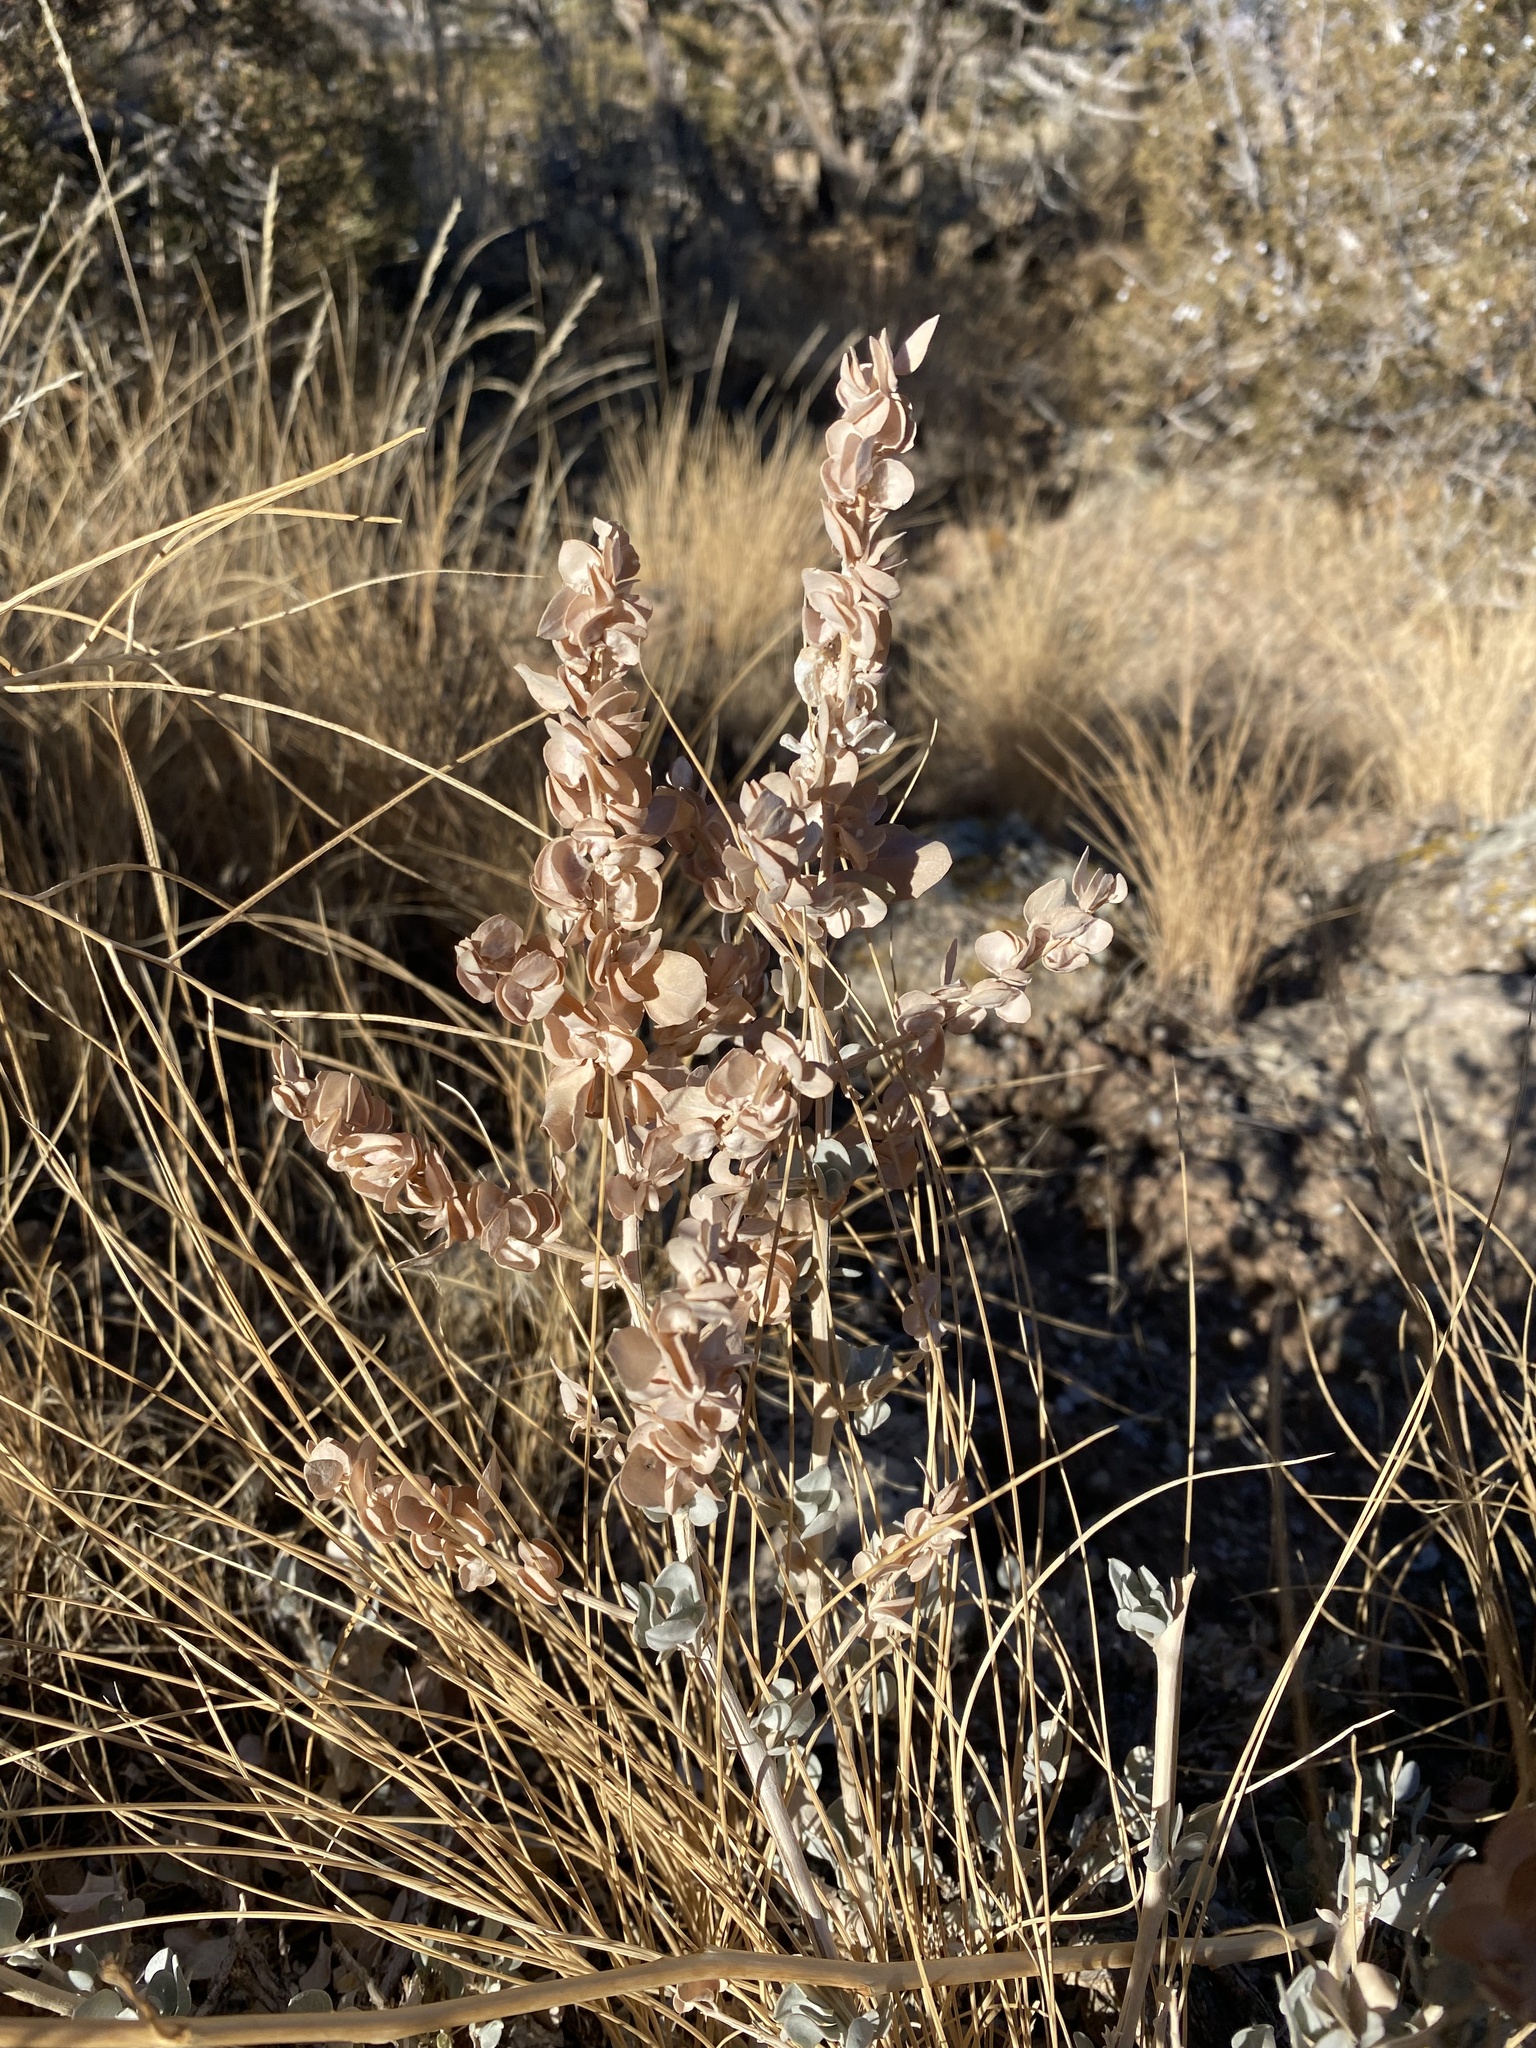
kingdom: Plantae
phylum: Tracheophyta
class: Magnoliopsida
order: Caryophyllales
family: Amaranthaceae
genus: Atriplex
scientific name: Atriplex confertifolia
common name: Shadscale
